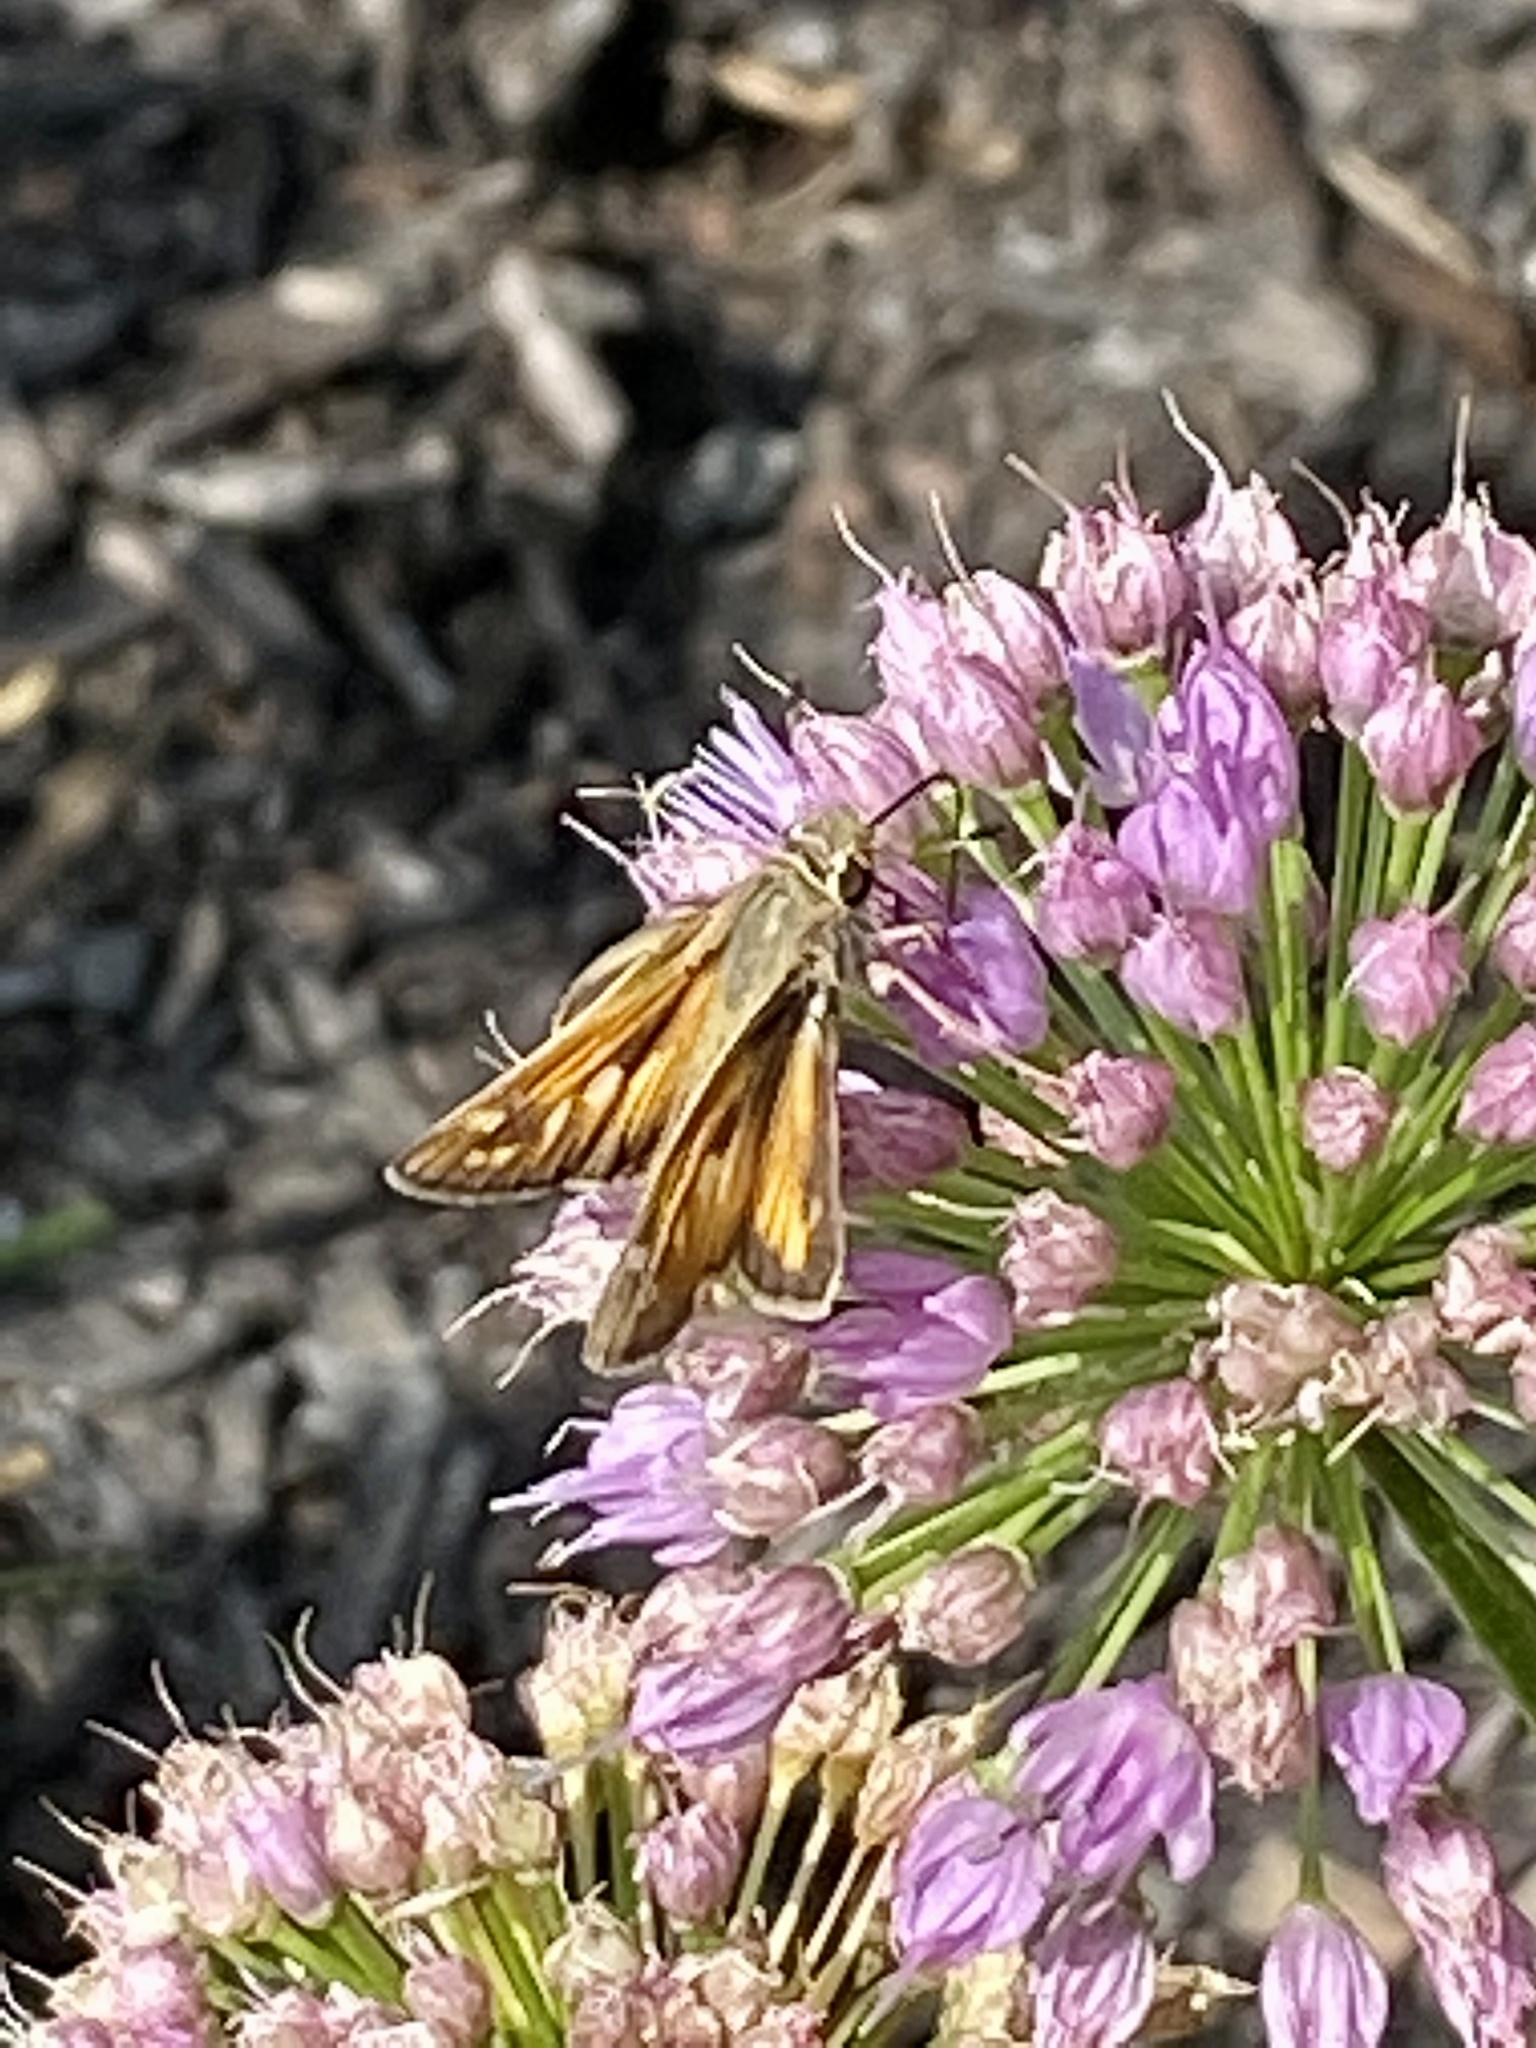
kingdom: Animalia
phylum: Arthropoda
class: Insecta
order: Lepidoptera
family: Hesperiidae
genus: Atalopedes
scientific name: Atalopedes
